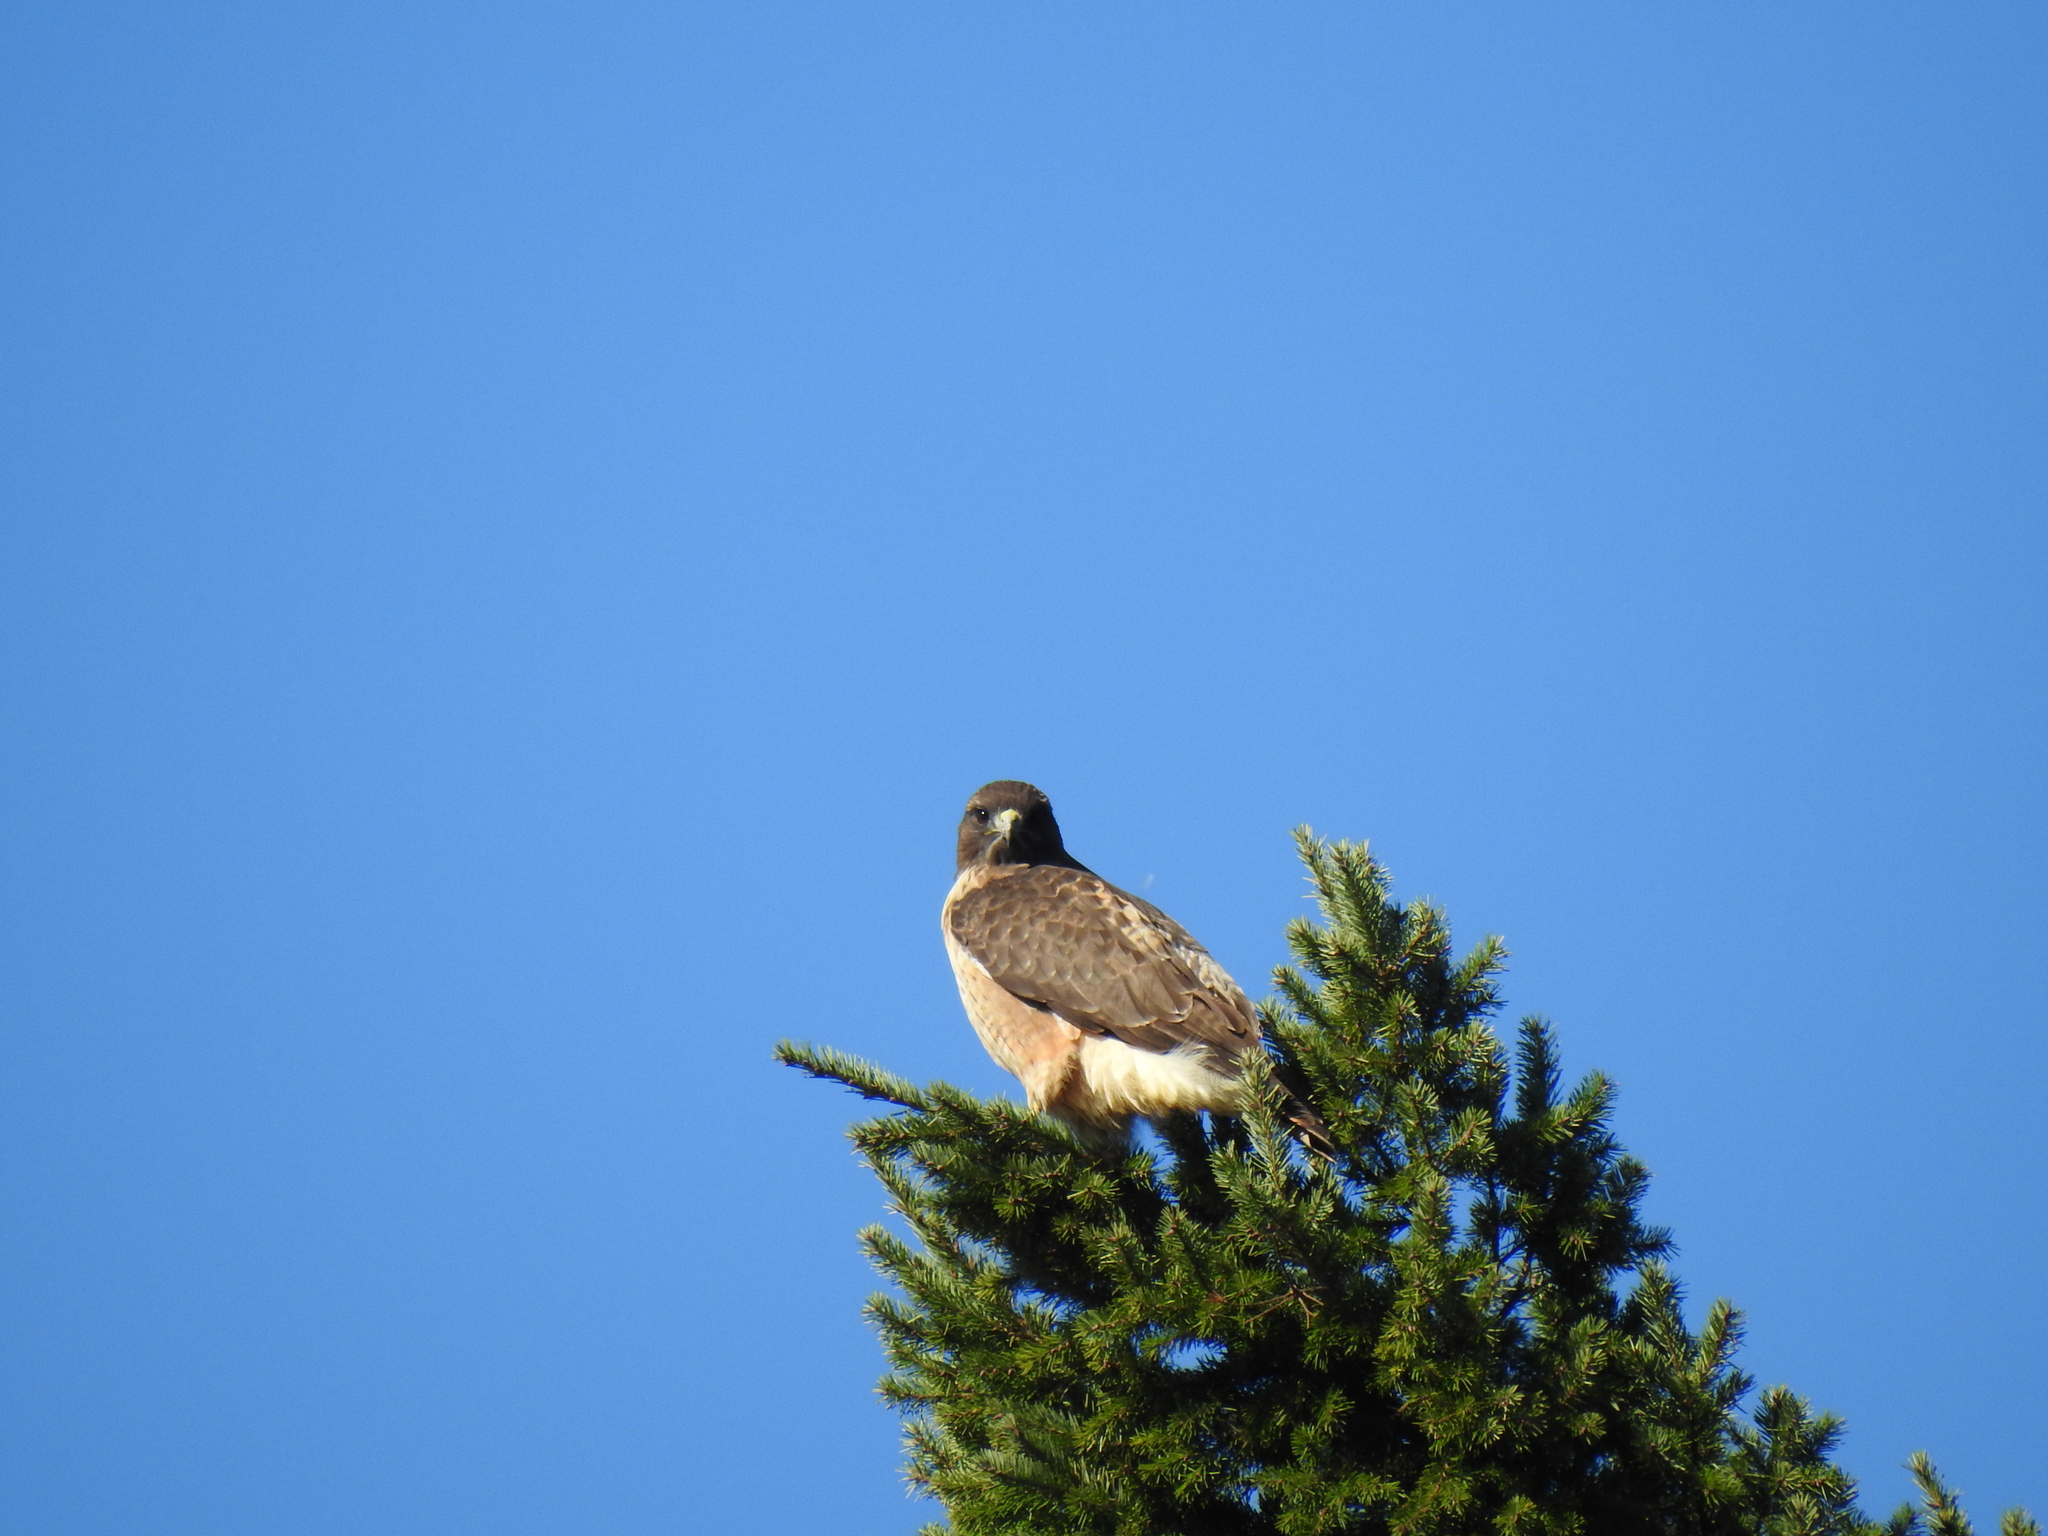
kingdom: Animalia
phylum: Chordata
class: Aves
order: Accipitriformes
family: Accipitridae
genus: Buteo
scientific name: Buteo jamaicensis
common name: Red-tailed hawk
